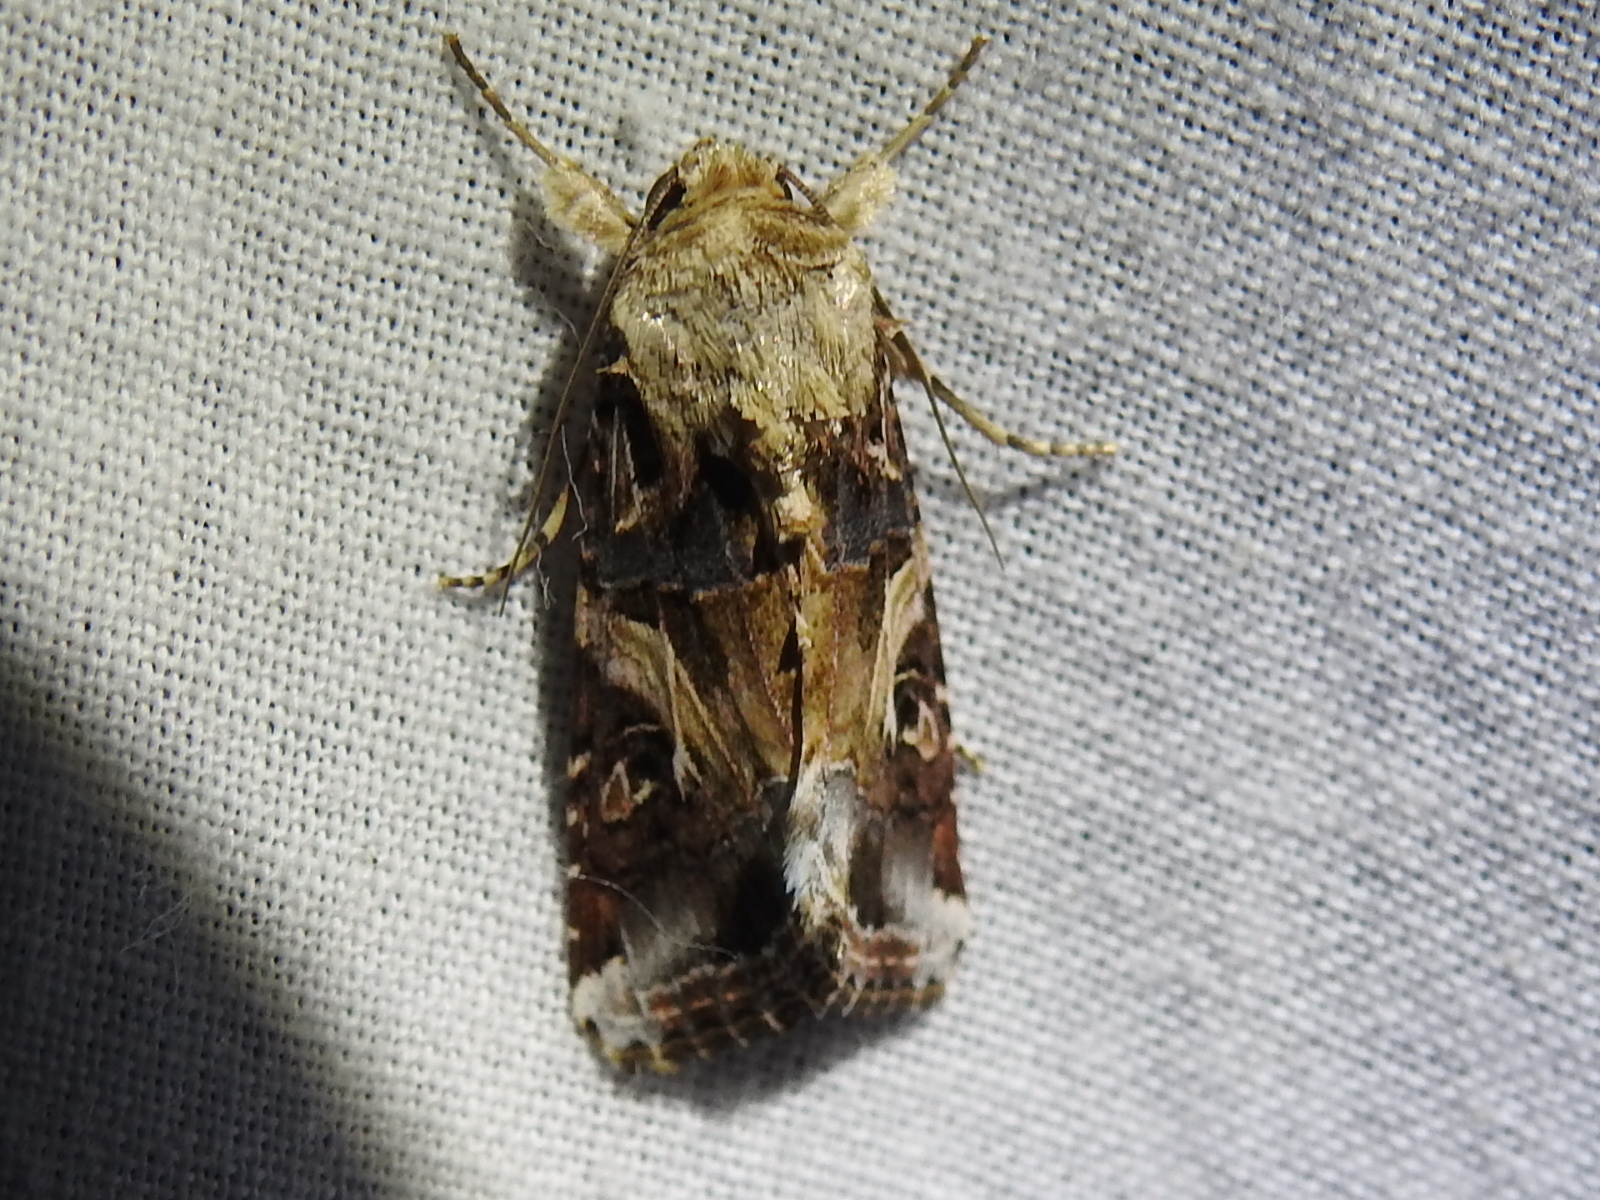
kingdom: Animalia
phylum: Arthropoda
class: Insecta
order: Lepidoptera
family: Noctuidae
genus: Spodoptera
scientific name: Spodoptera ornithogalli
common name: Yellow-striped armyworm
